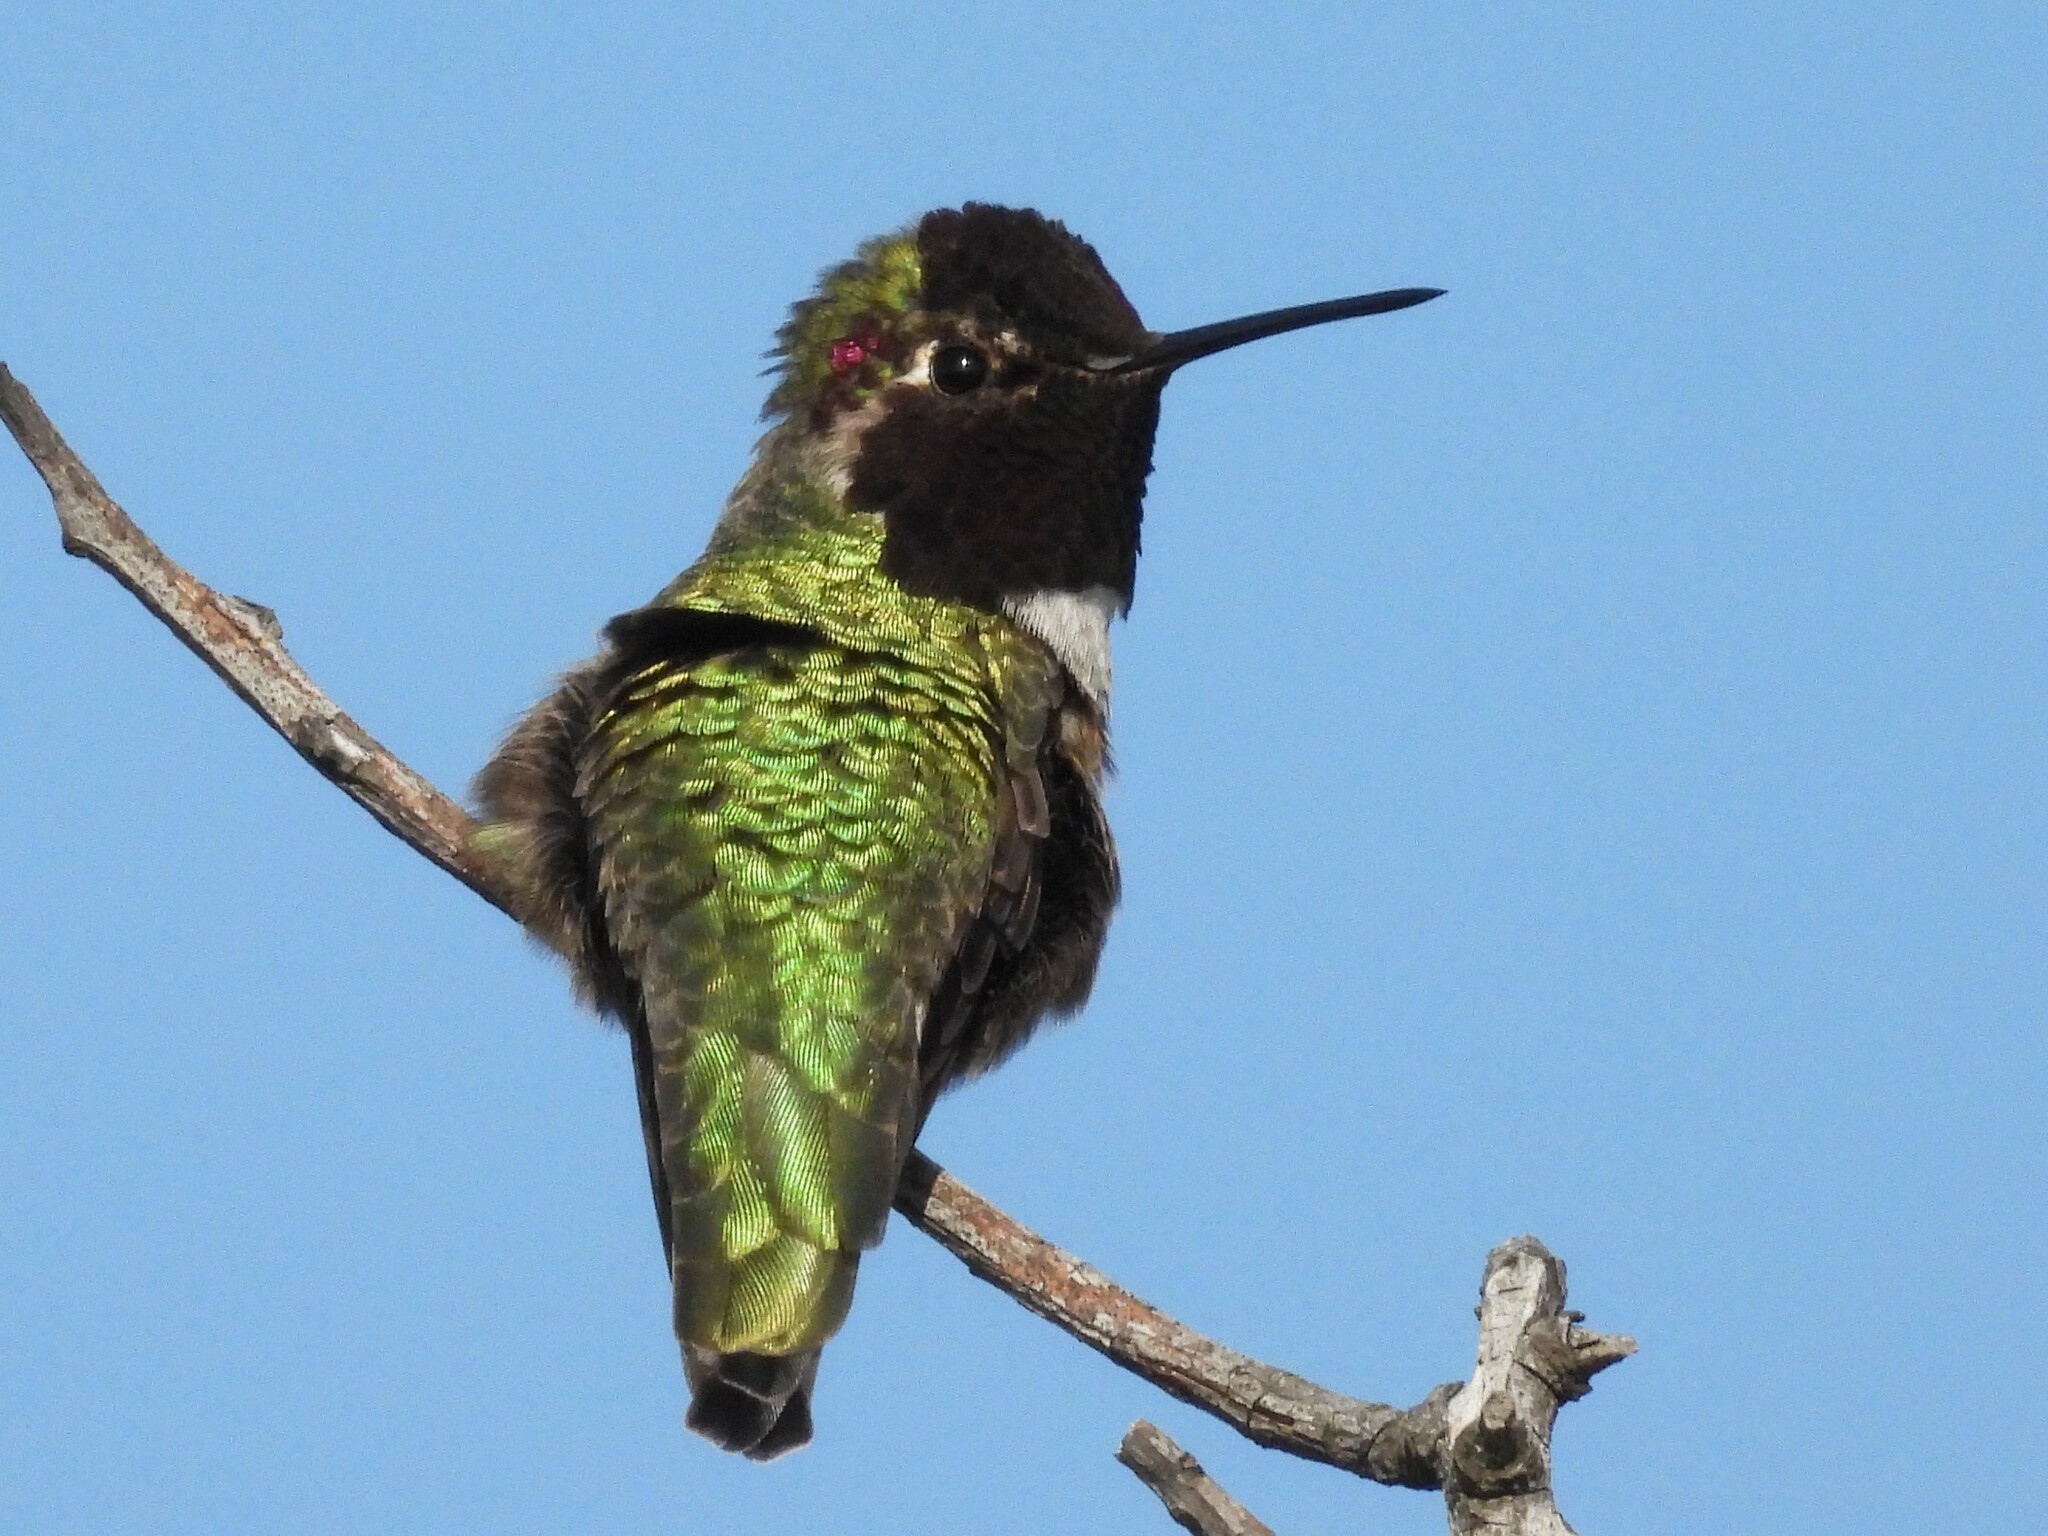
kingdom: Animalia
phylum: Chordata
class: Aves
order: Apodiformes
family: Trochilidae
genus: Calypte
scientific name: Calypte anna
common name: Anna's hummingbird
